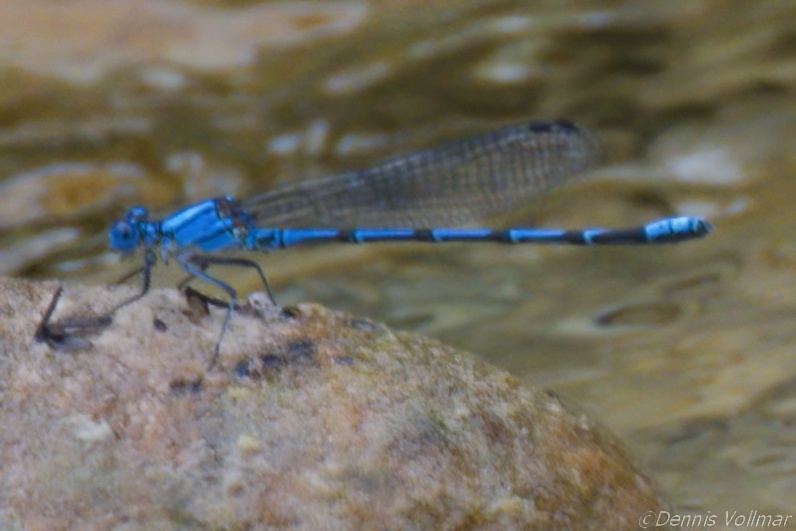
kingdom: Animalia
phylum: Arthropoda
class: Insecta
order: Odonata
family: Coenagrionidae
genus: Argia
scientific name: Argia barretti
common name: Comanche dancer
